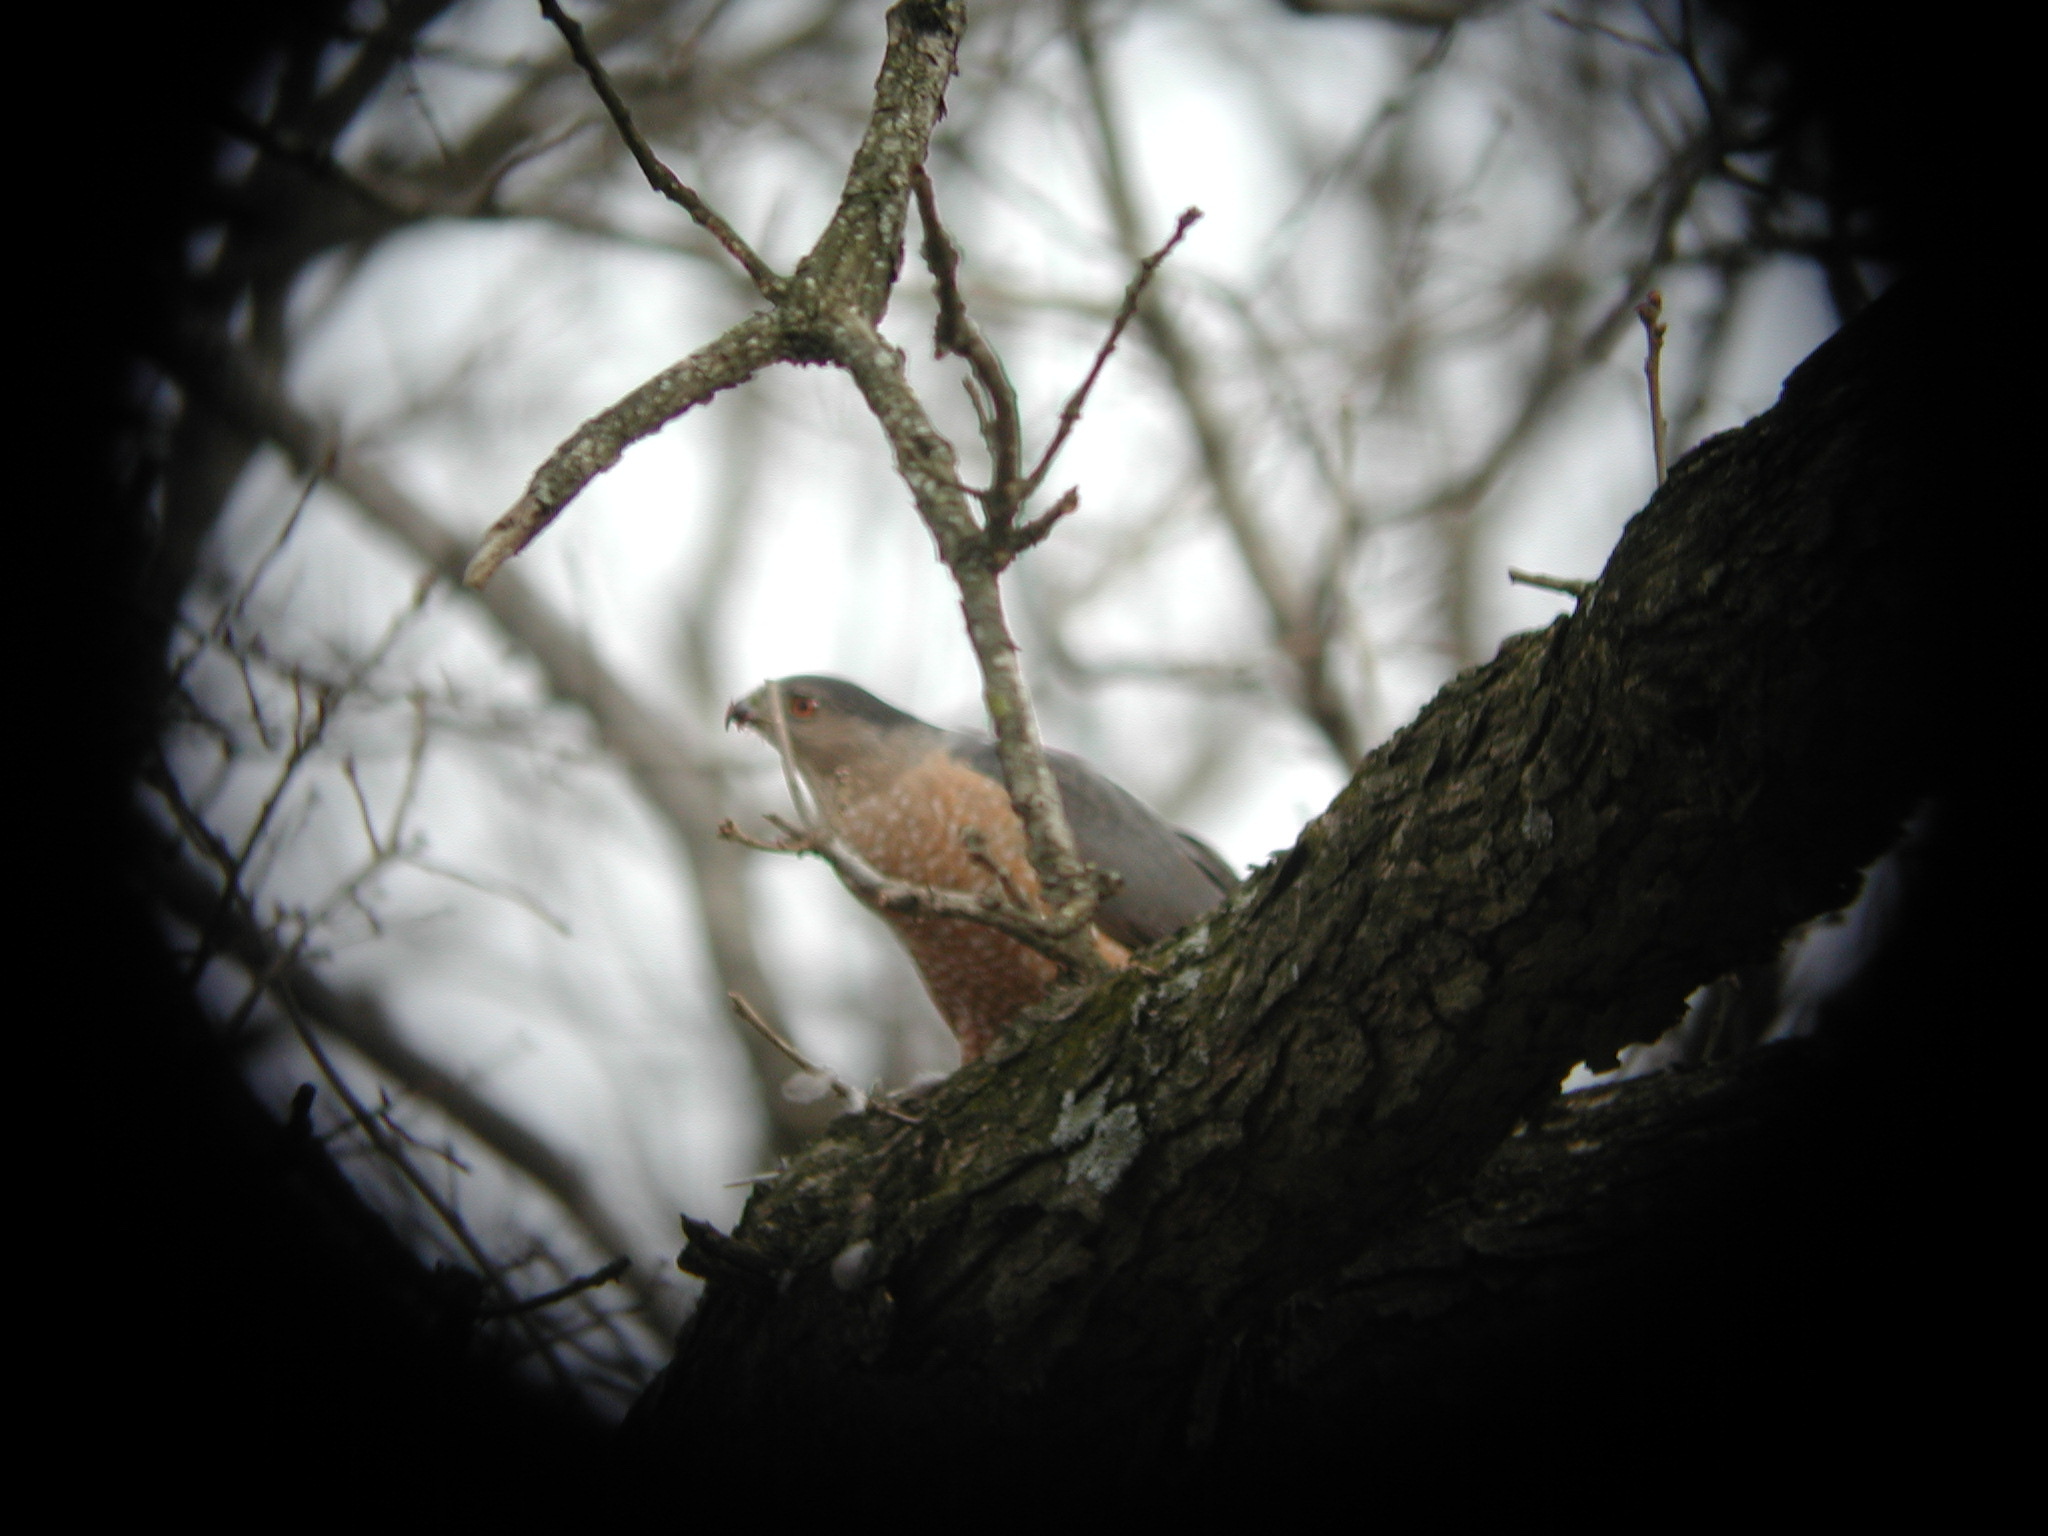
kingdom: Animalia
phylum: Chordata
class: Aves
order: Accipitriformes
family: Accipitridae
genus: Accipiter
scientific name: Accipiter cooperii
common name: Cooper's hawk
